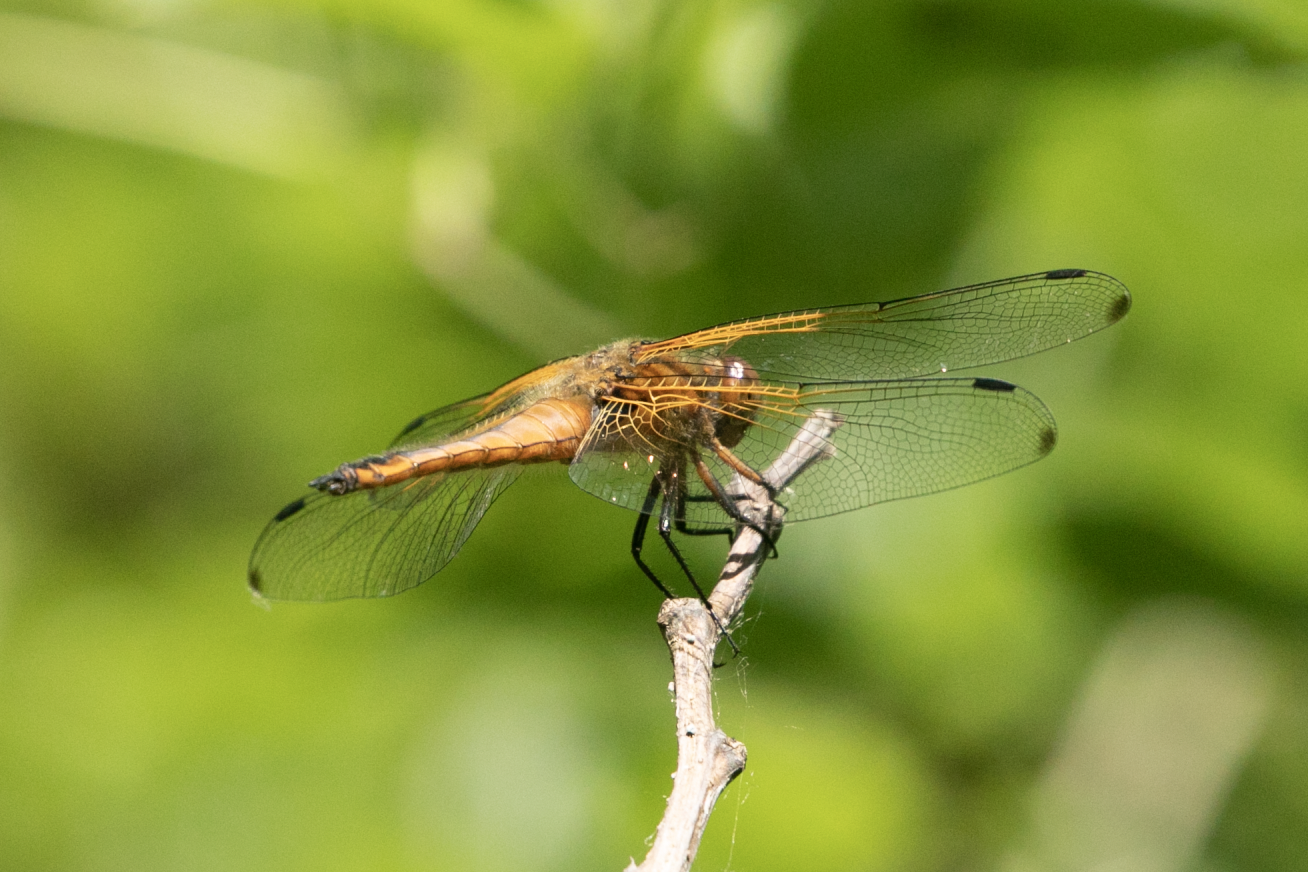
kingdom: Animalia
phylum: Arthropoda
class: Insecta
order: Odonata
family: Libellulidae
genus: Libellula
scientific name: Libellula fulva
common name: Blue chaser
